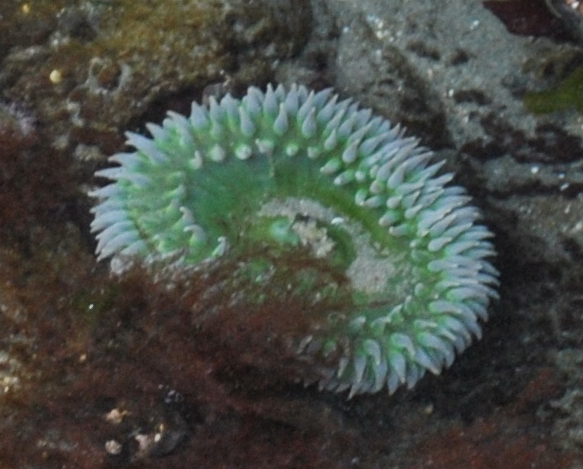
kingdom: Animalia
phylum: Cnidaria
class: Anthozoa
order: Actiniaria
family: Actiniidae
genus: Anthopleura
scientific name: Anthopleura xanthogrammica
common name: Giant green anemone
